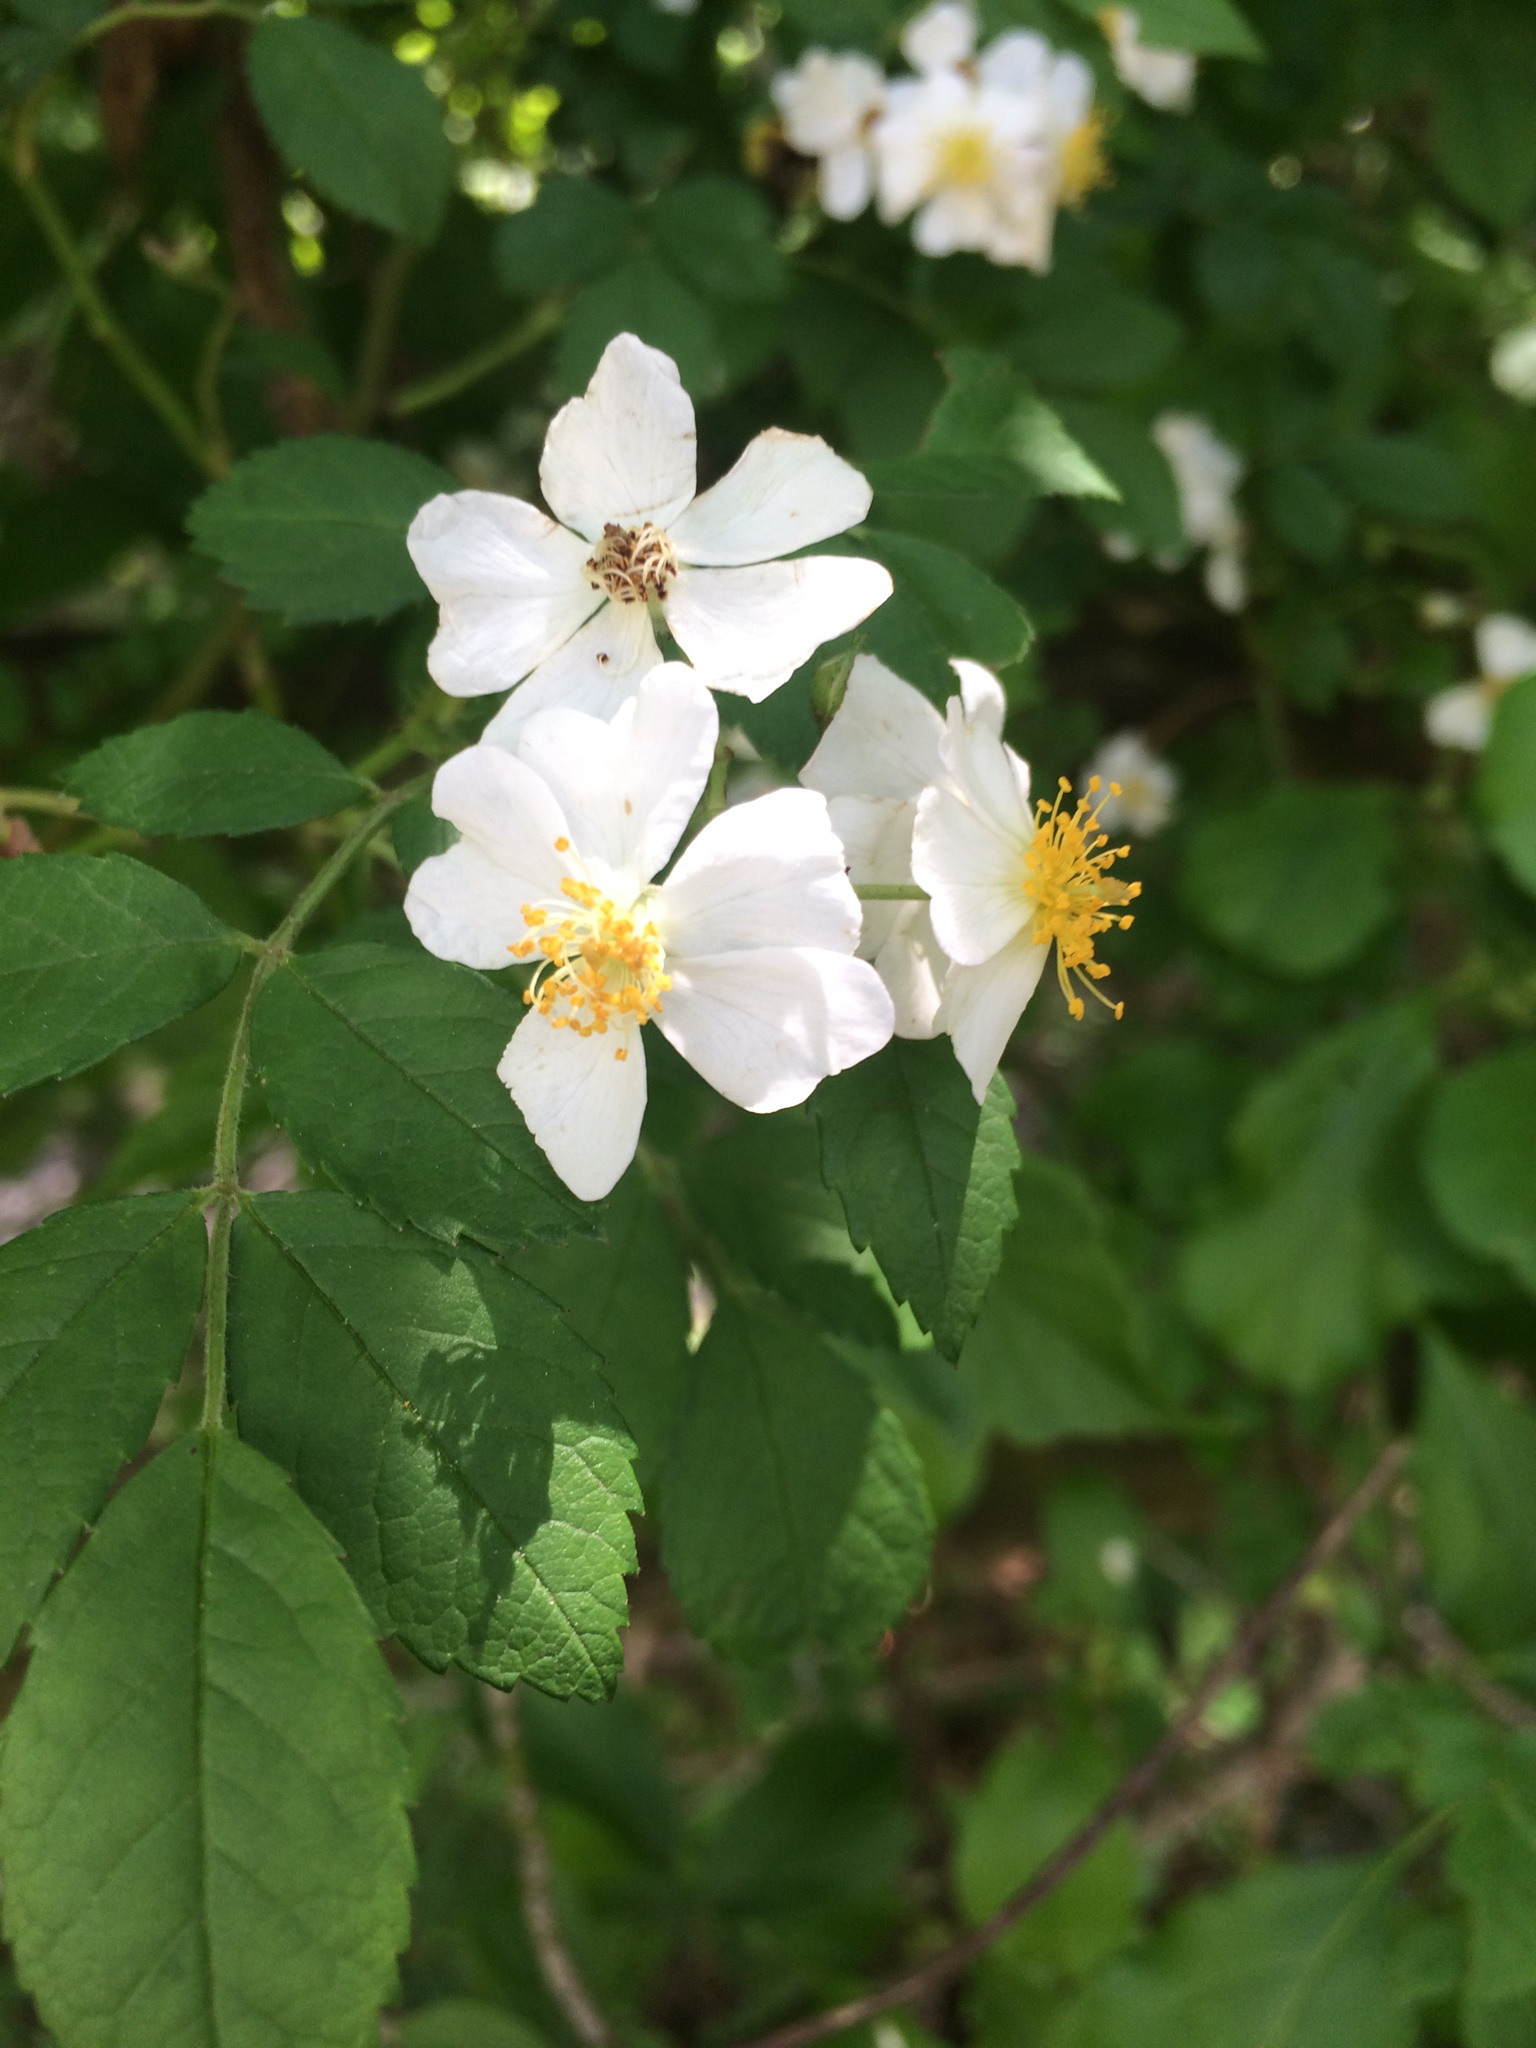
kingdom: Plantae
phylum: Tracheophyta
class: Magnoliopsida
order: Rosales
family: Rosaceae
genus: Rosa
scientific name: Rosa multiflora
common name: Multiflora rose
